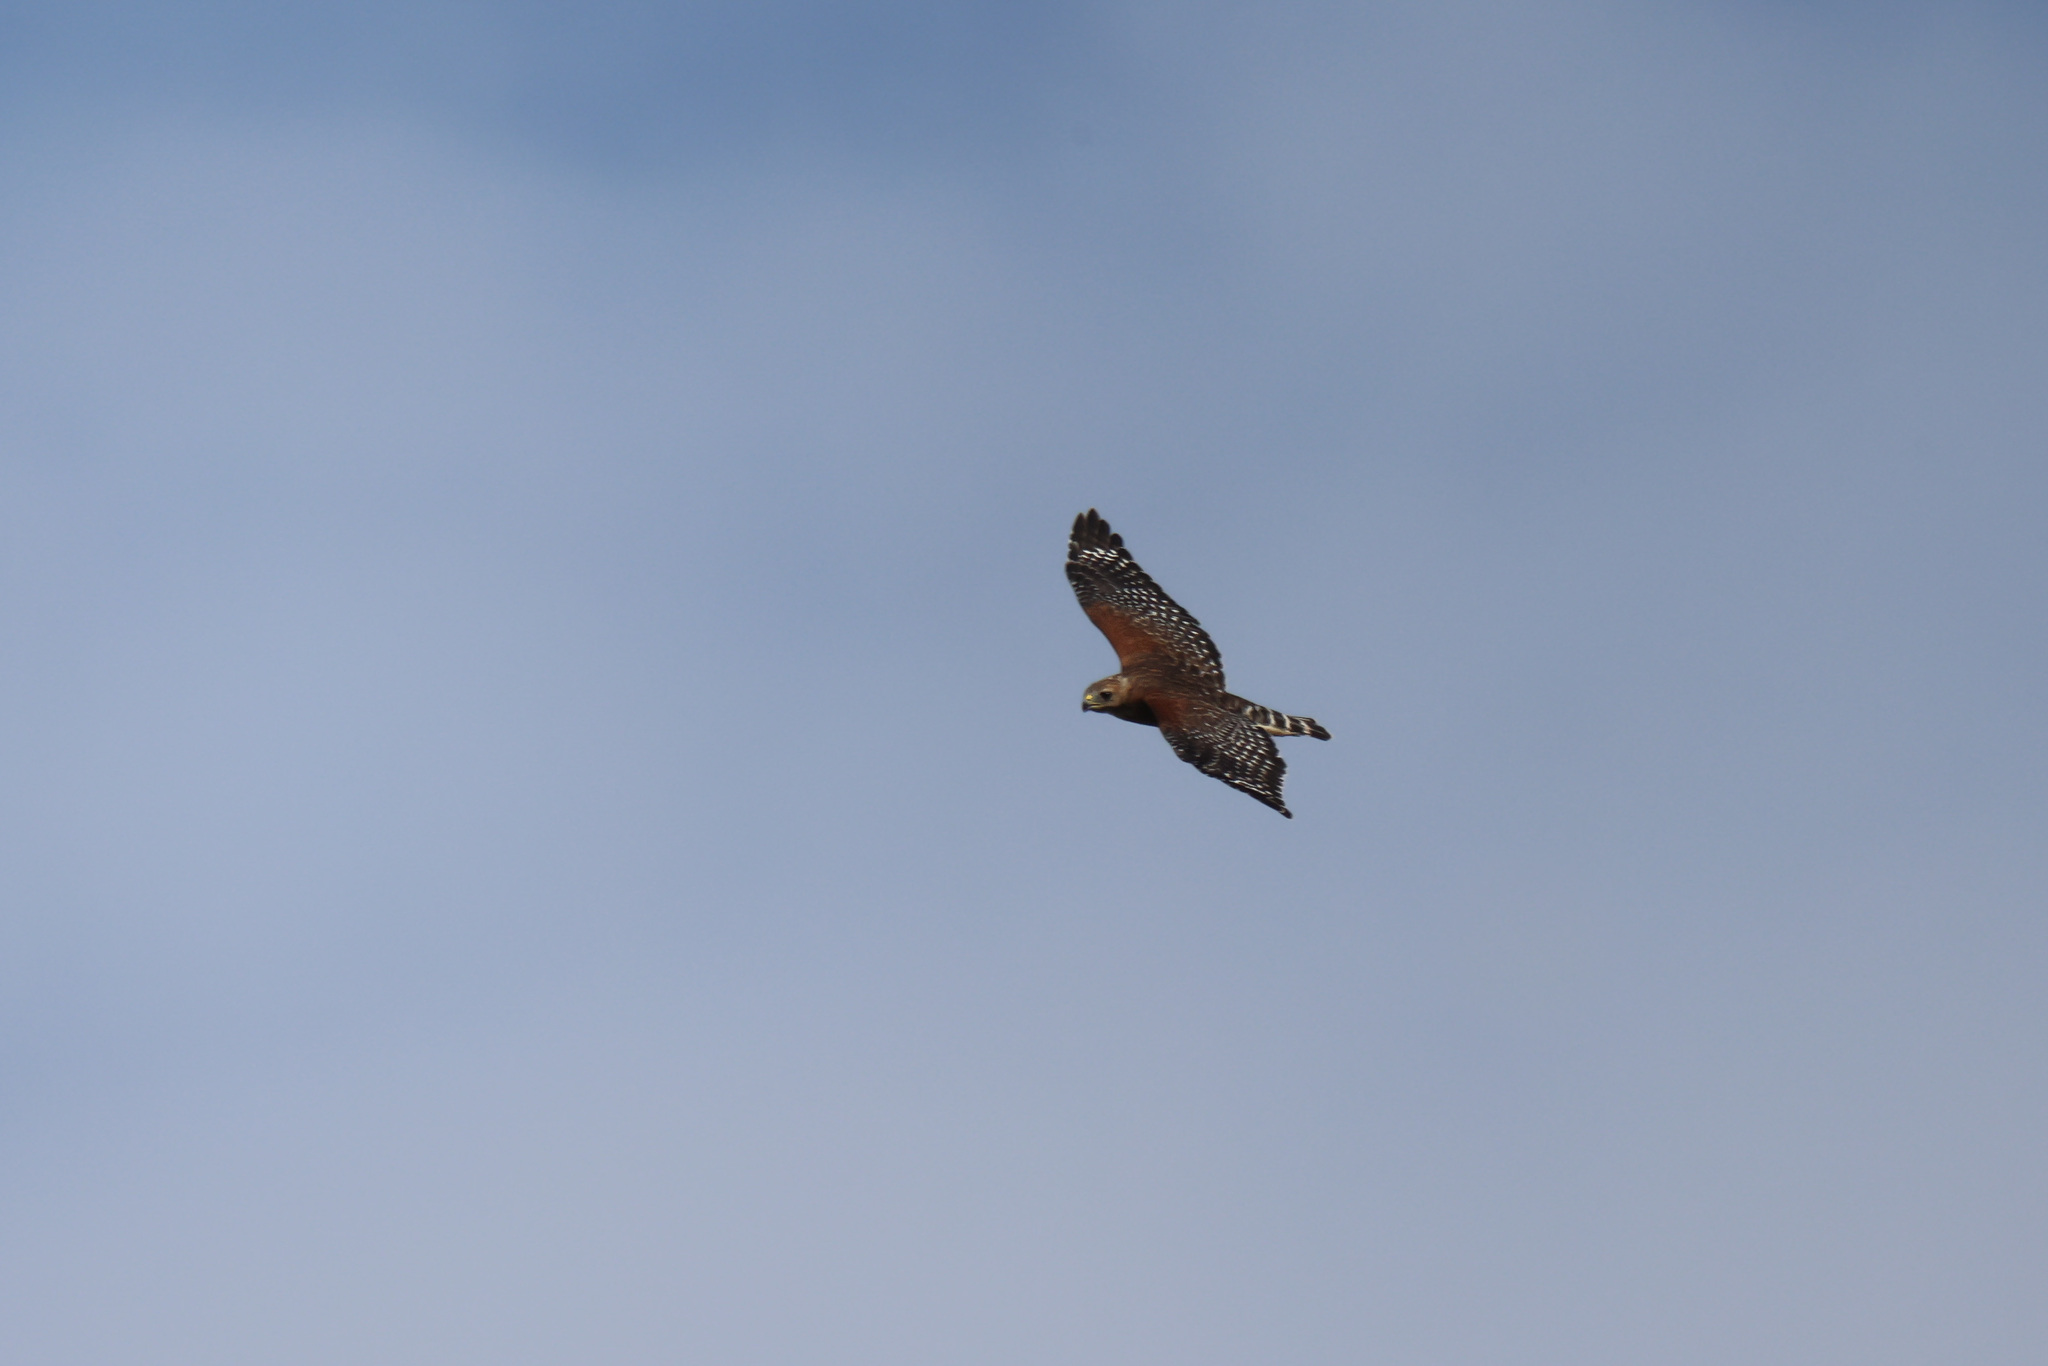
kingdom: Animalia
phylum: Chordata
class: Aves
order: Accipitriformes
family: Accipitridae
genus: Buteo
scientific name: Buteo lineatus
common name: Red-shouldered hawk
